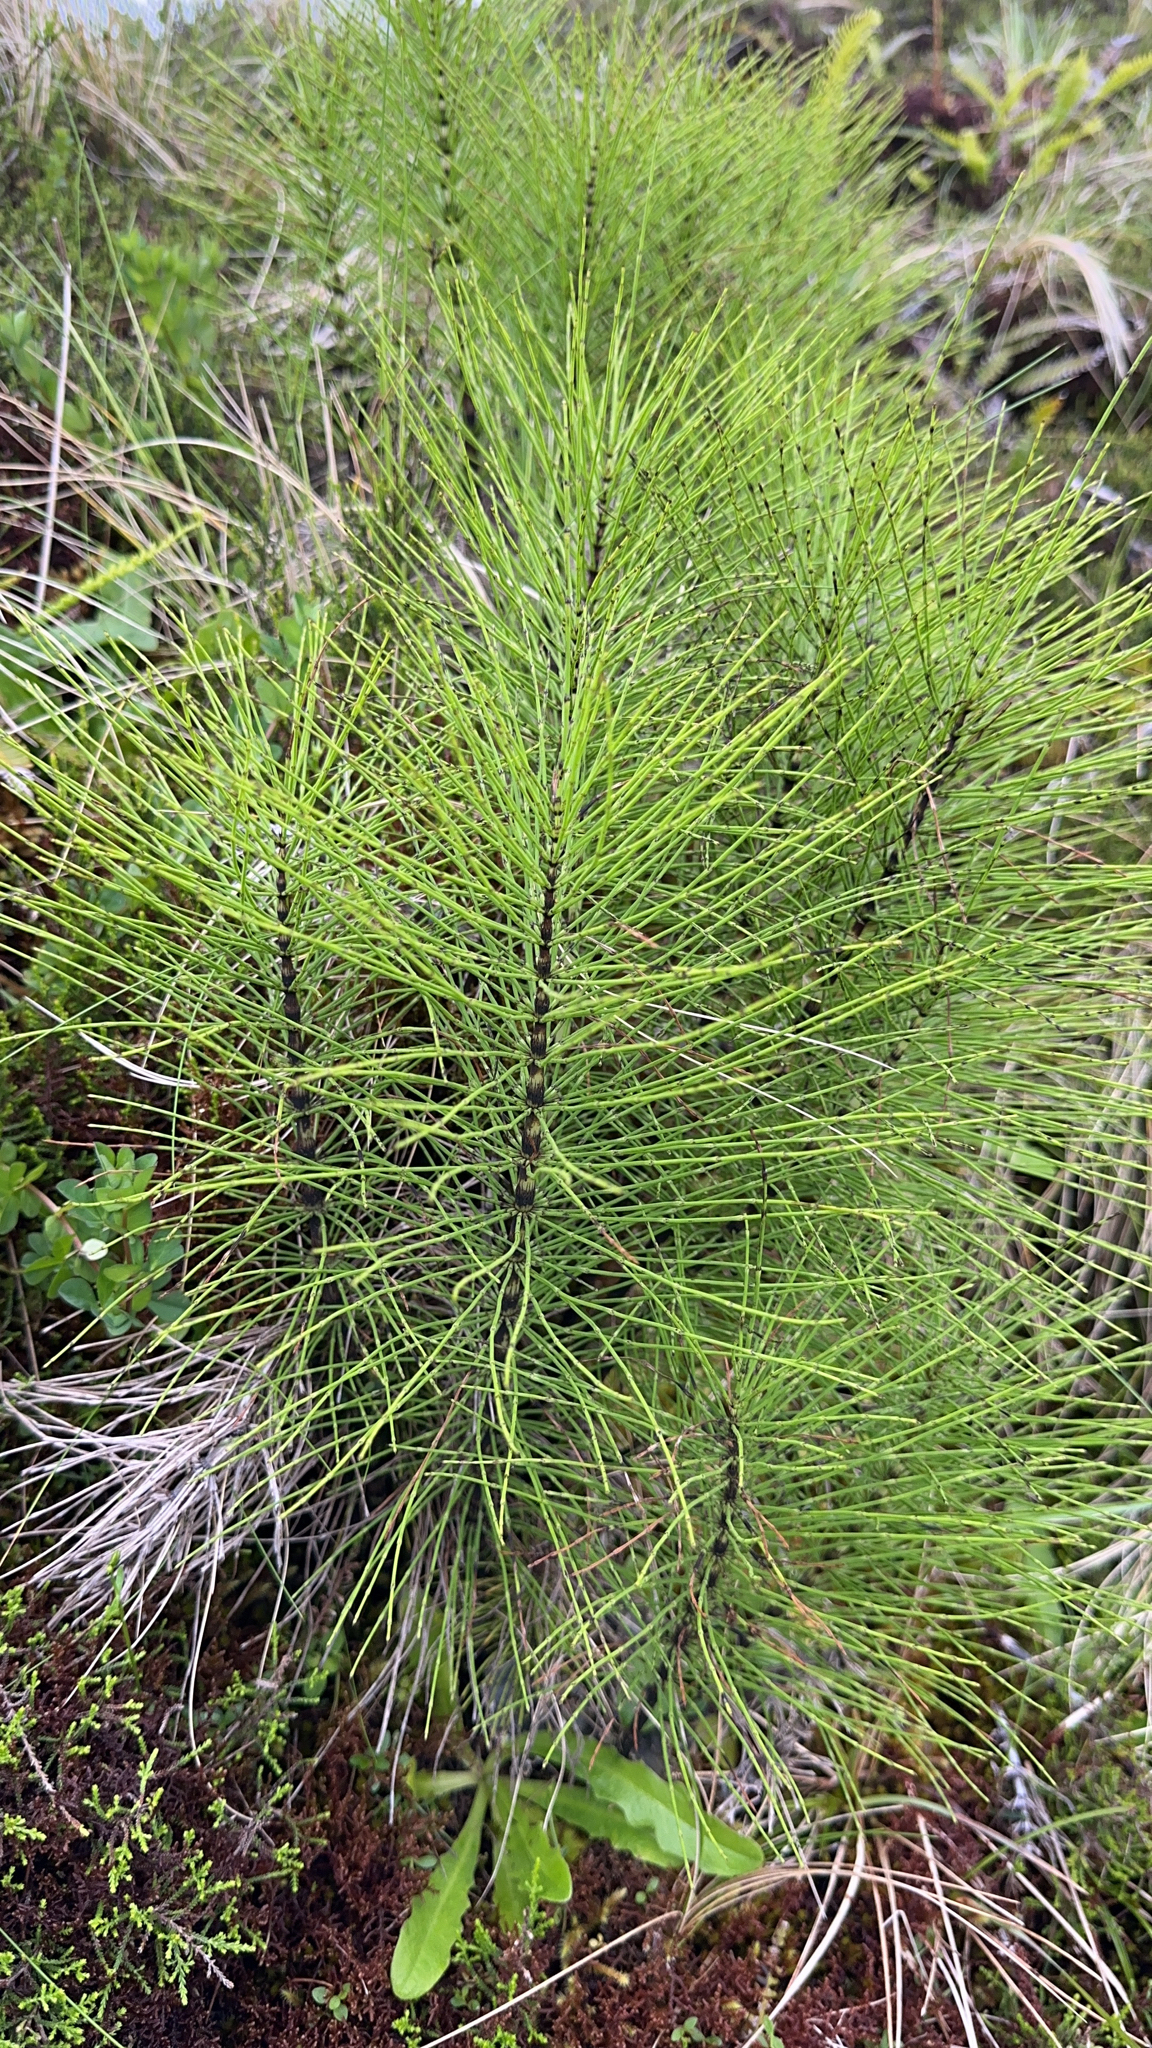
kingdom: Plantae
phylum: Tracheophyta
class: Polypodiopsida
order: Equisetales
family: Equisetaceae
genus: Equisetum
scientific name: Equisetum telmateia
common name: Great horsetail
